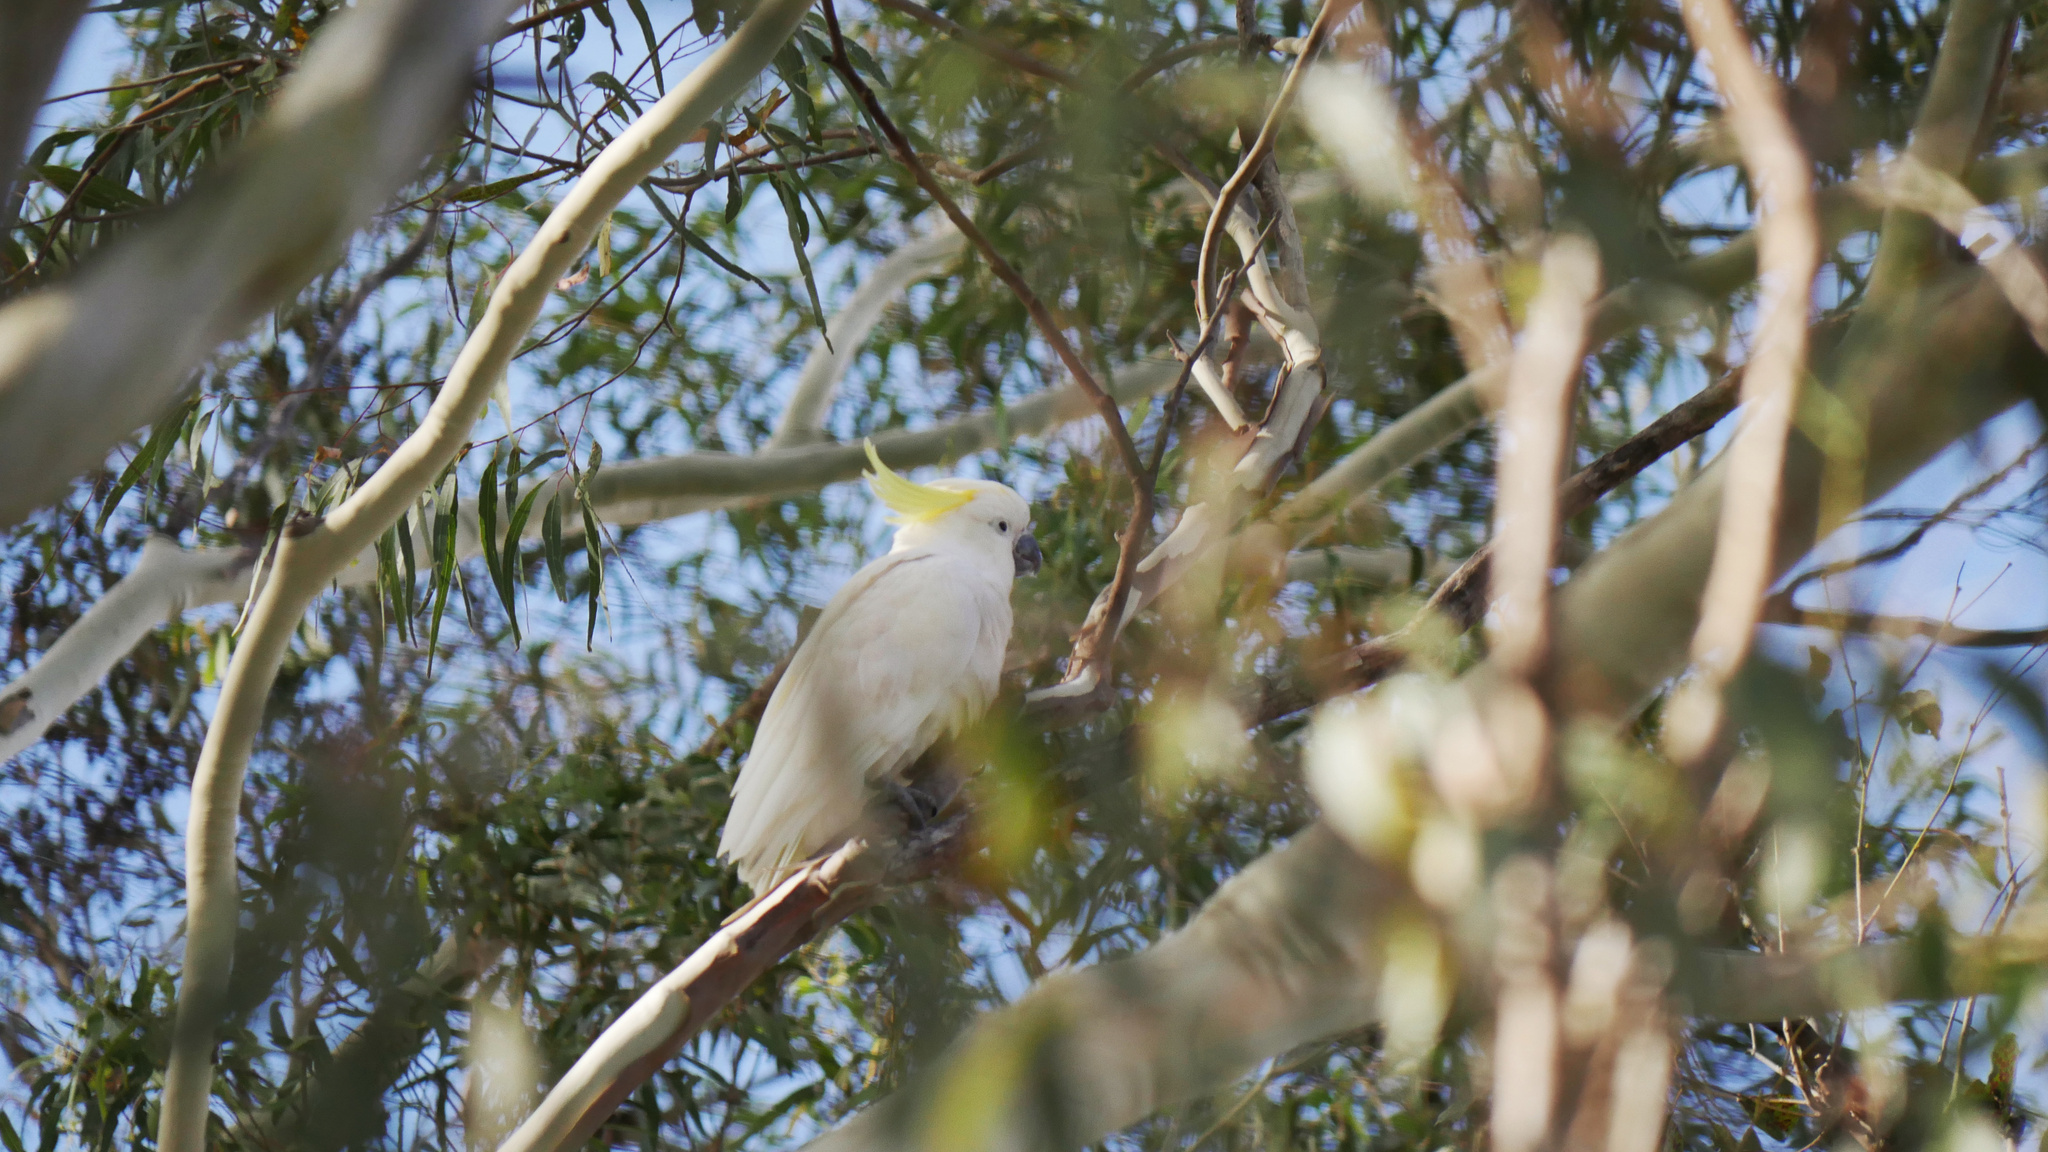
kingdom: Animalia
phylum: Chordata
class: Aves
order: Psittaciformes
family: Psittacidae
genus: Cacatua
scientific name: Cacatua galerita
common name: Sulphur-crested cockatoo
